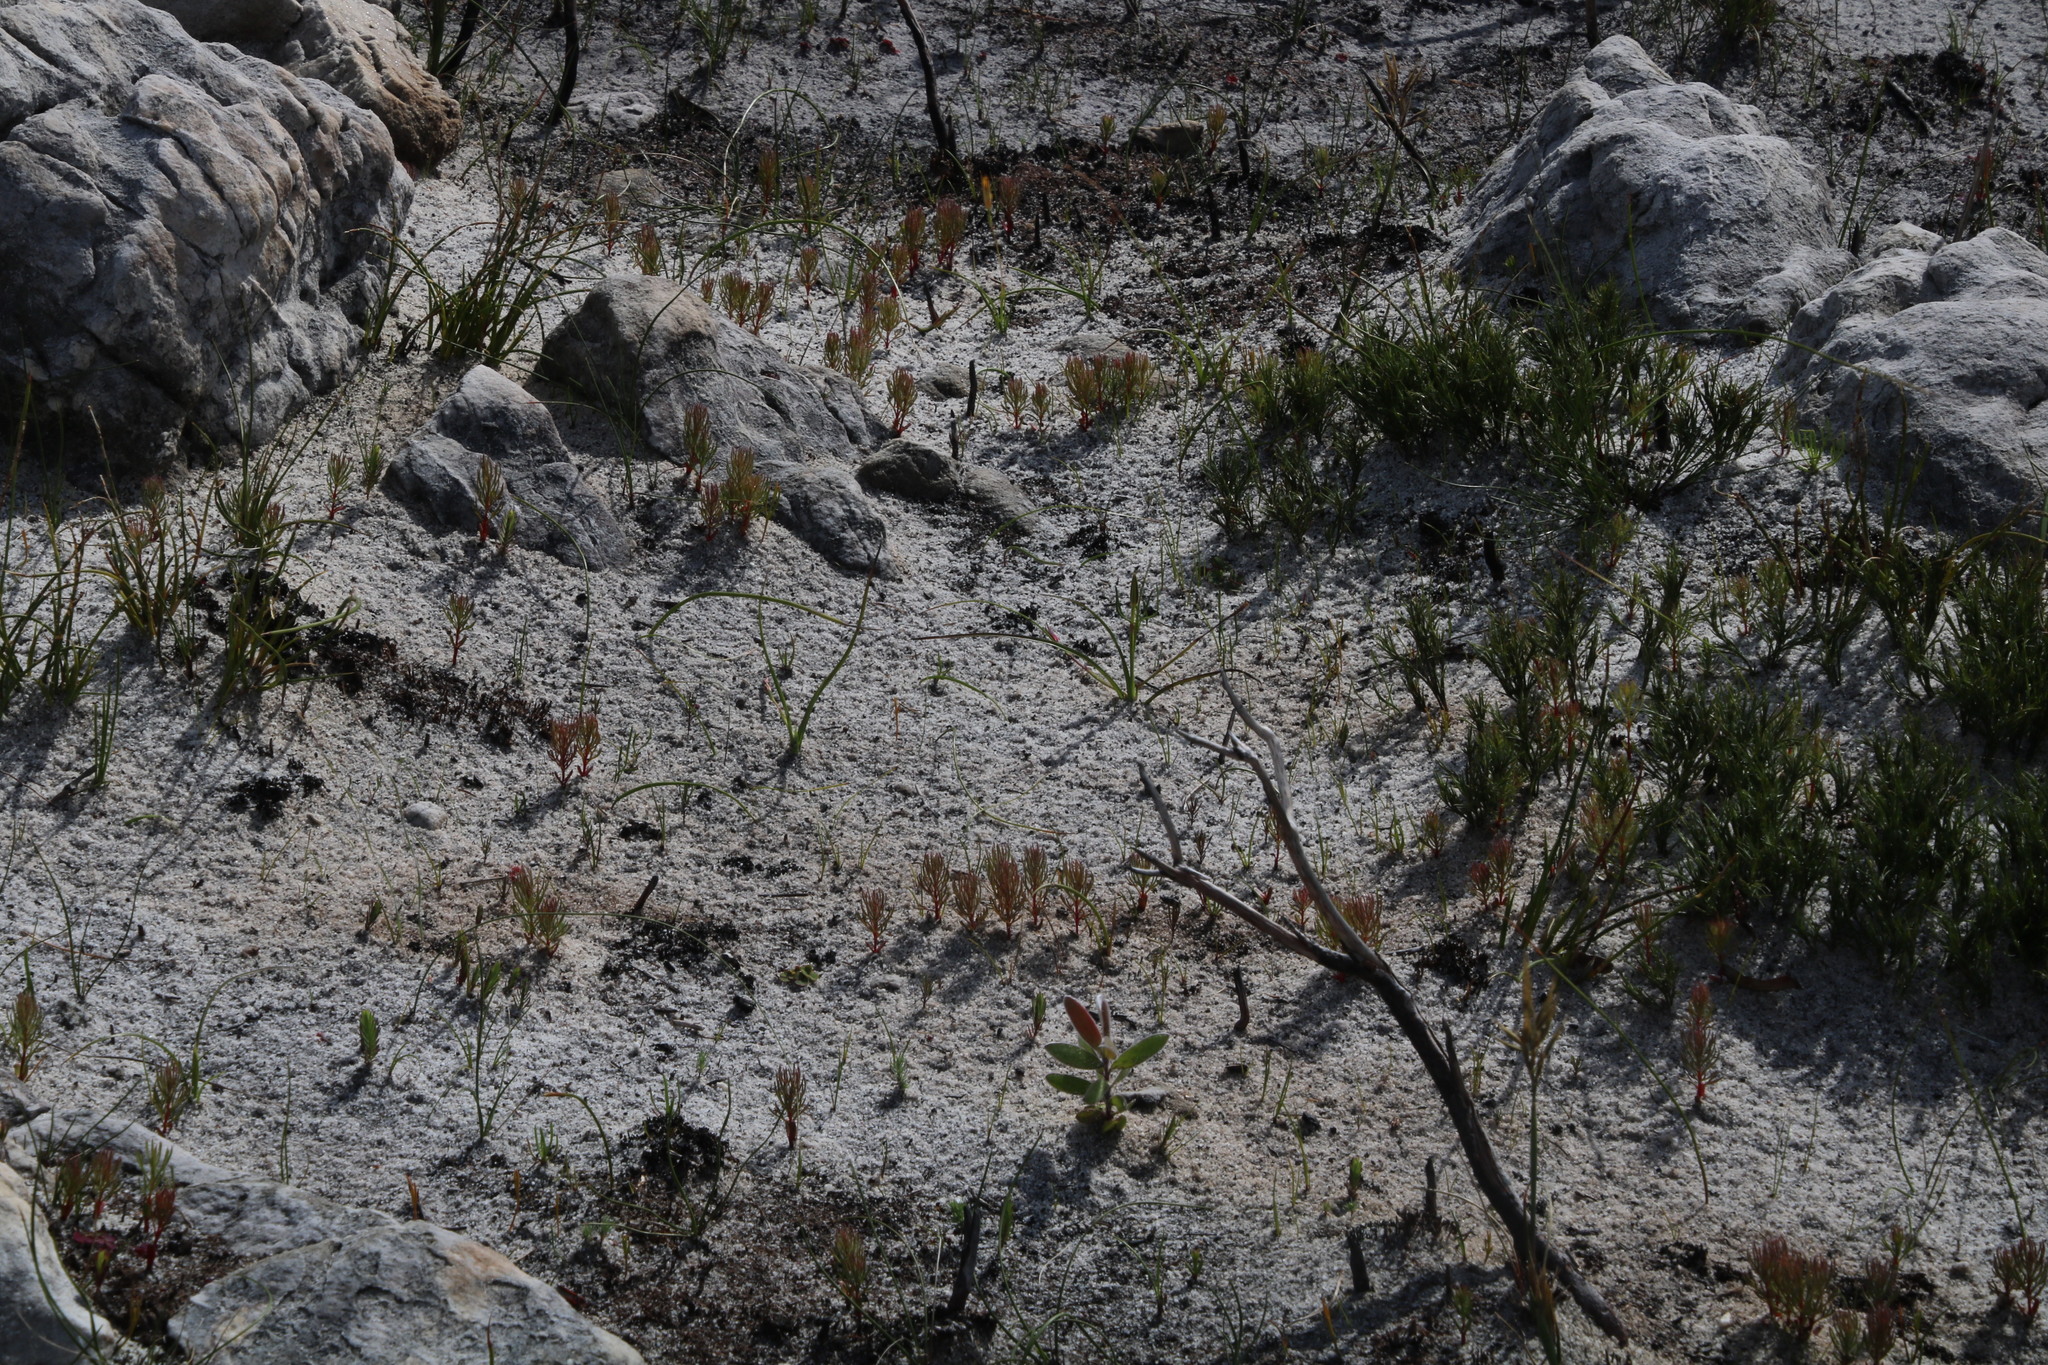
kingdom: Plantae
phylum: Tracheophyta
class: Magnoliopsida
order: Proteales
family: Proteaceae
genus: Serruria
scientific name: Serruria glomerata
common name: Cluster spiderhead
